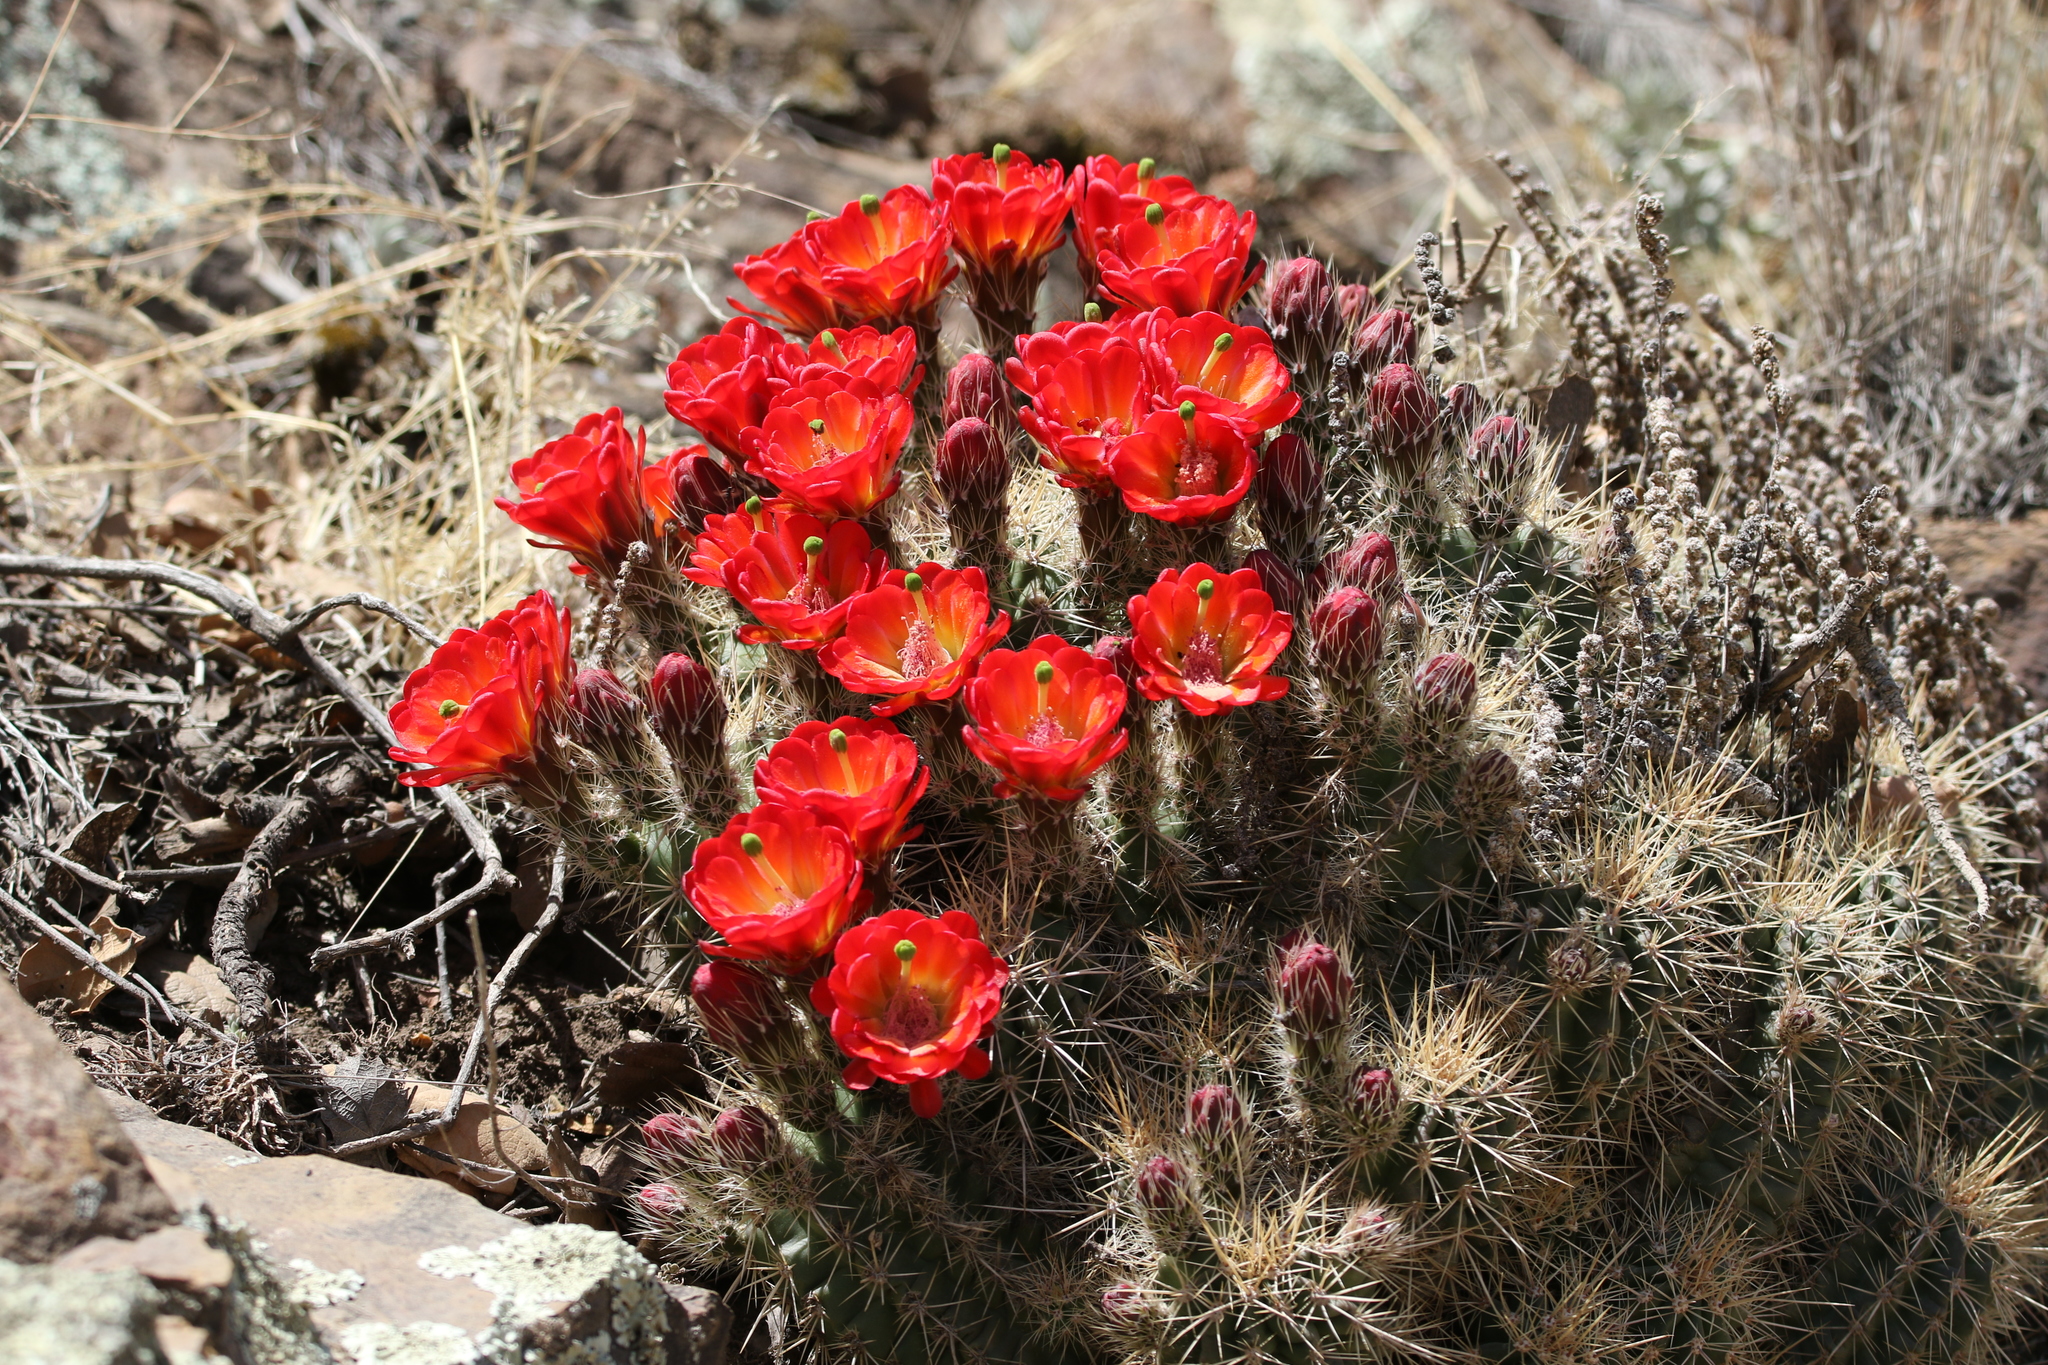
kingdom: Plantae
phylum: Tracheophyta
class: Magnoliopsida
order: Caryophyllales
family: Cactaceae
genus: Echinocereus
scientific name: Echinocereus coccineus
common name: Scarlet hedgehog cactus
